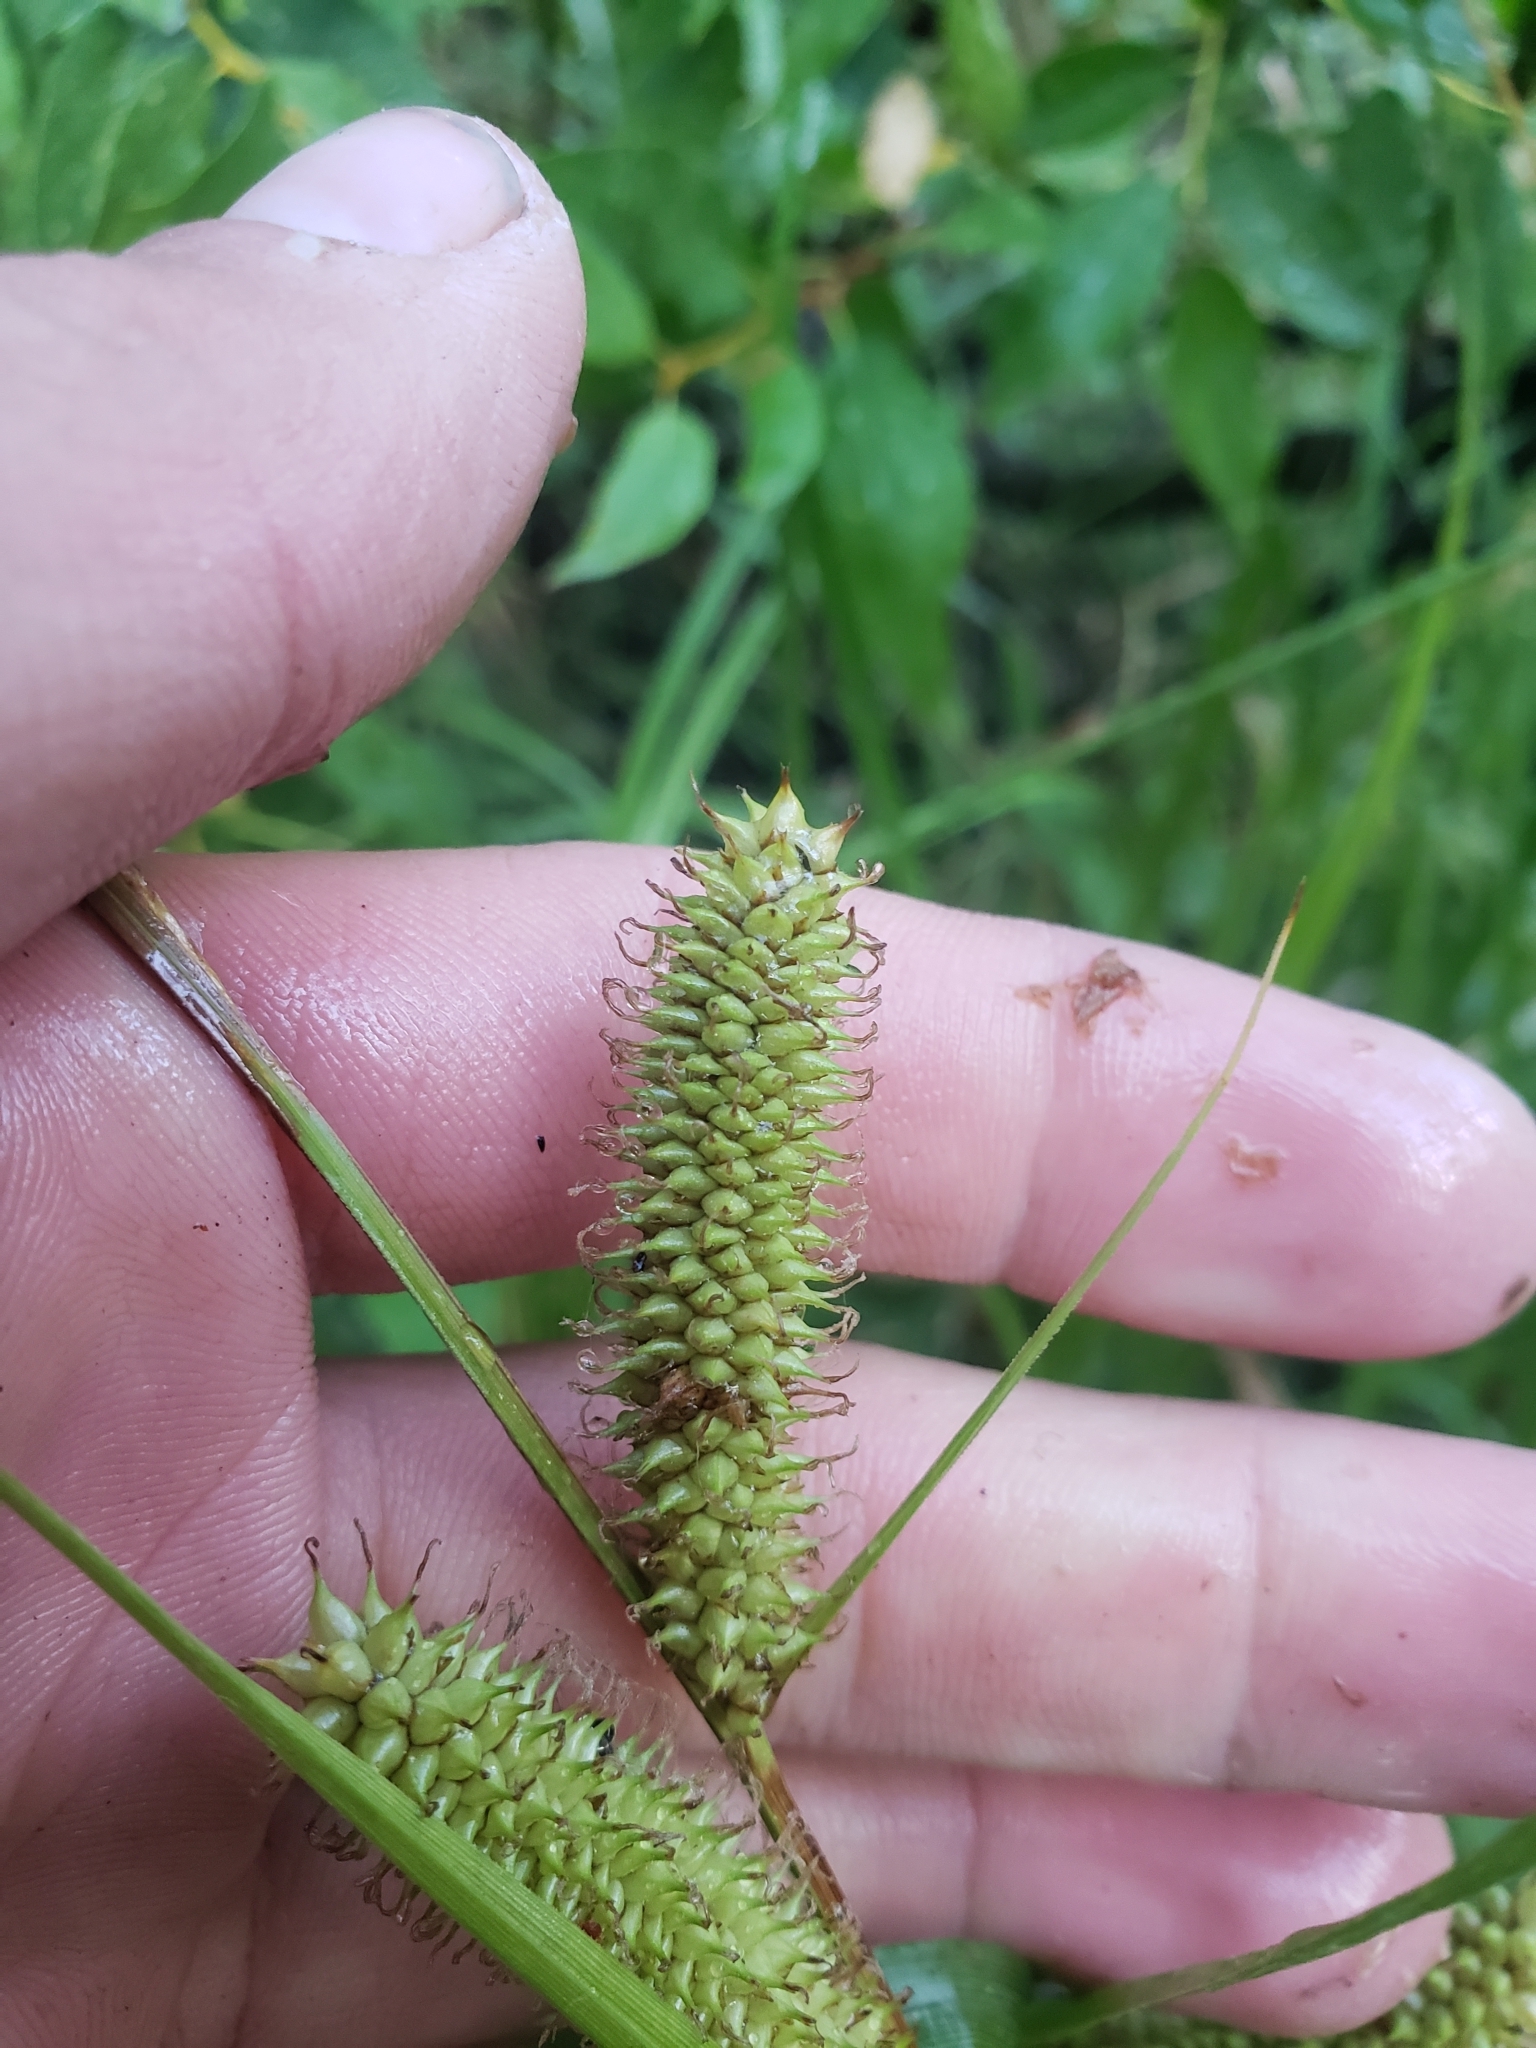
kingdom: Plantae
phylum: Tracheophyta
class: Liliopsida
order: Poales
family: Cyperaceae
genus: Carex
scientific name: Carex utriculata
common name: Beaked sedge
